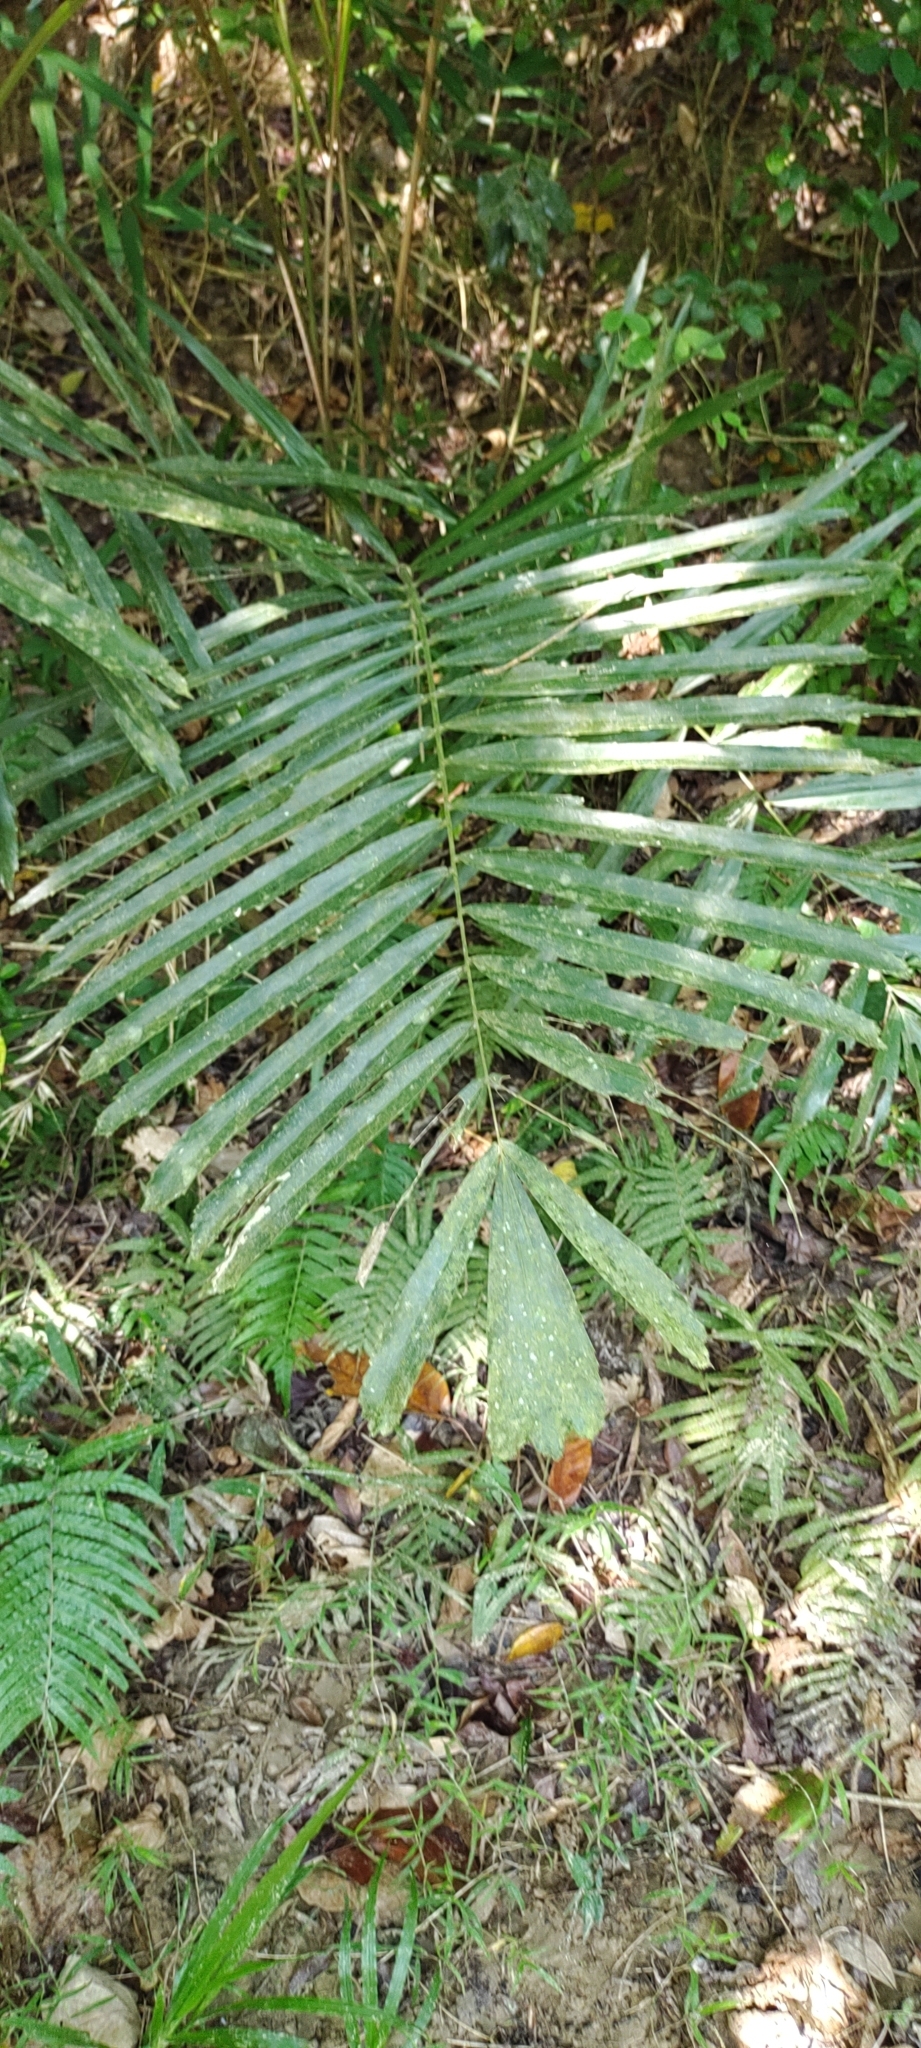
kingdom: Plantae
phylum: Tracheophyta
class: Liliopsida
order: Arecales
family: Arecaceae
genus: Arenga
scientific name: Arenga engleri
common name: Formosan sugar palm
